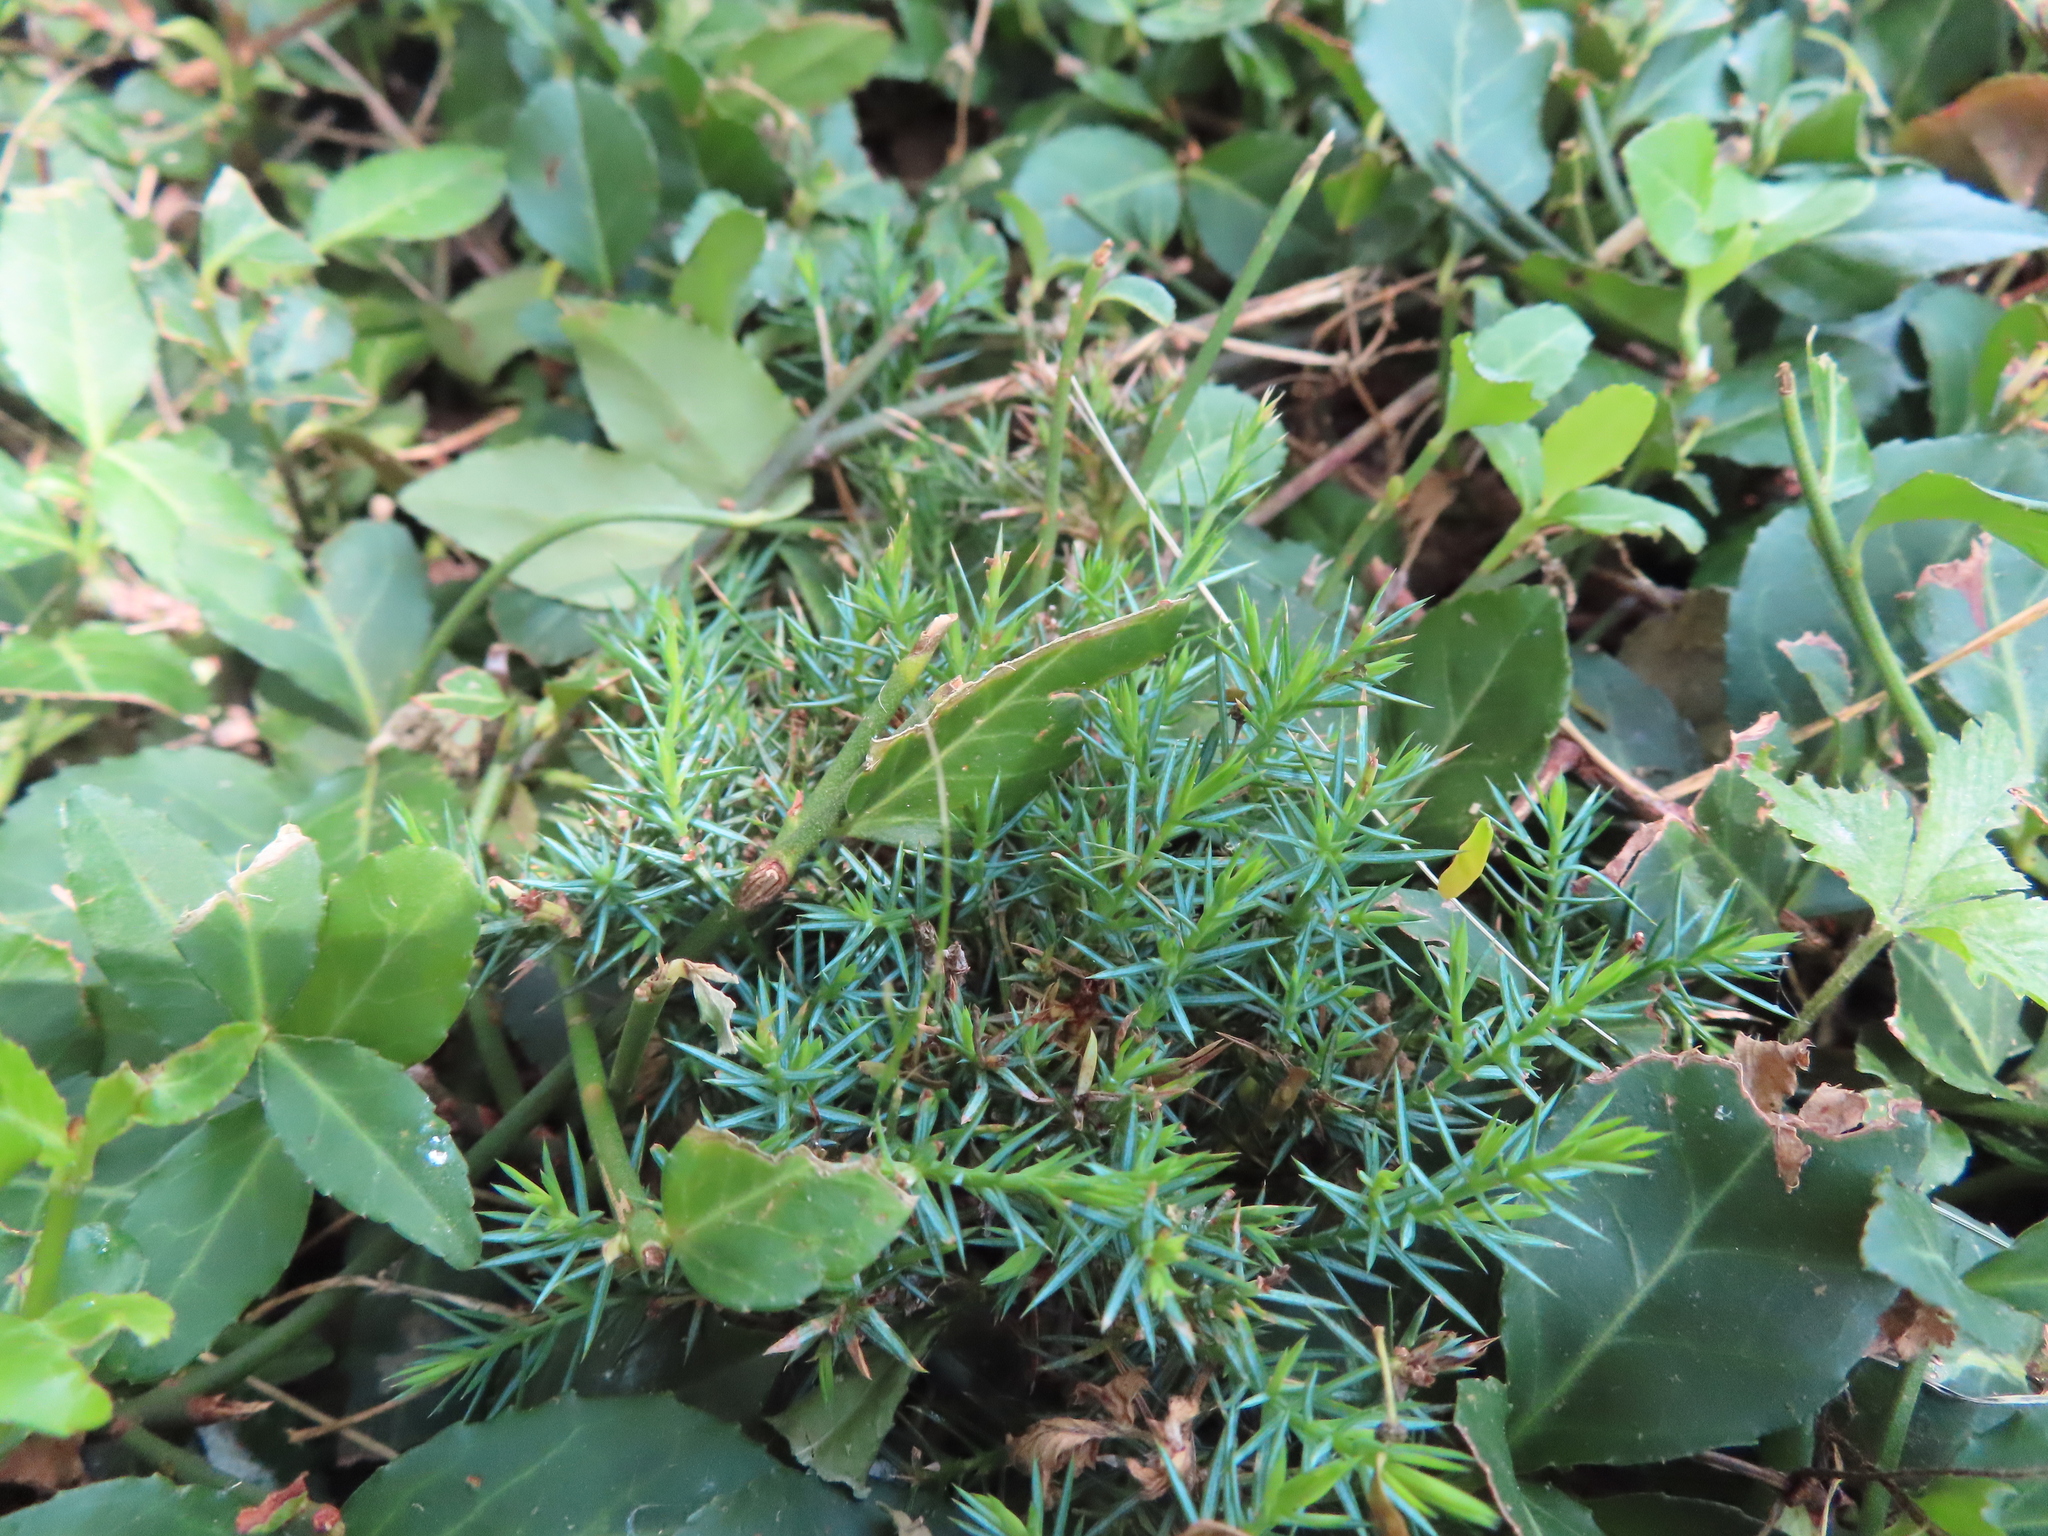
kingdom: Plantae
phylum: Tracheophyta
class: Pinopsida
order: Pinales
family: Cupressaceae
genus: Juniperus
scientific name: Juniperus virginiana
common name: Red juniper
